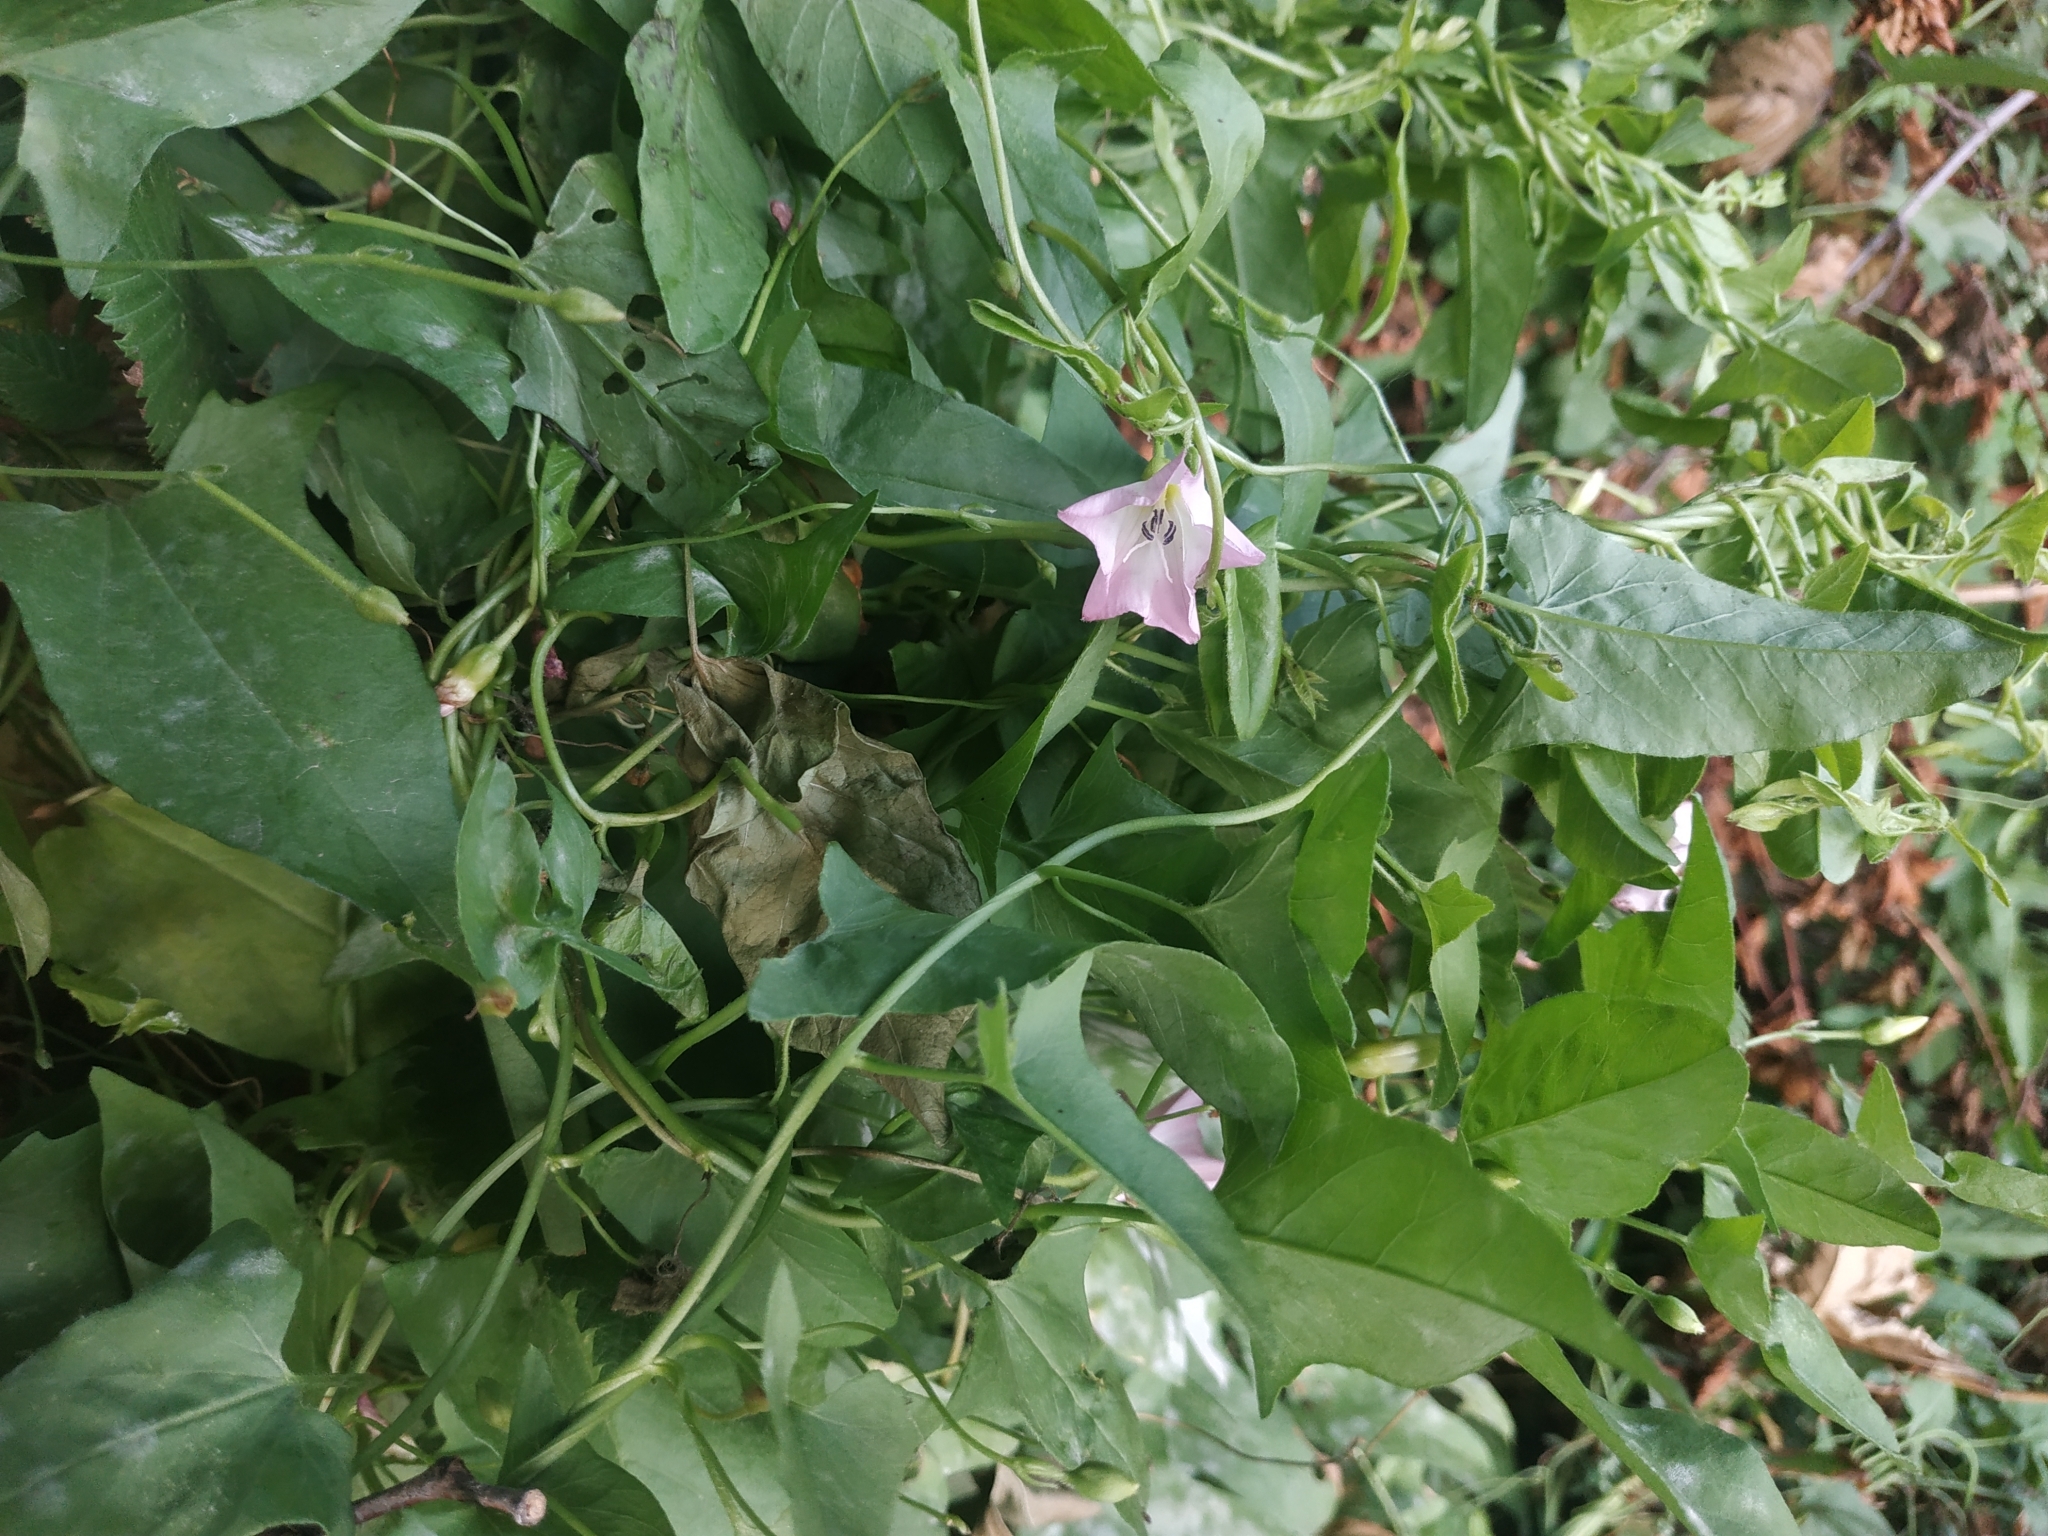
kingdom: Plantae
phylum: Tracheophyta
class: Magnoliopsida
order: Solanales
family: Convolvulaceae
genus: Convolvulus
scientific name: Convolvulus arvensis
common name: Field bindweed
